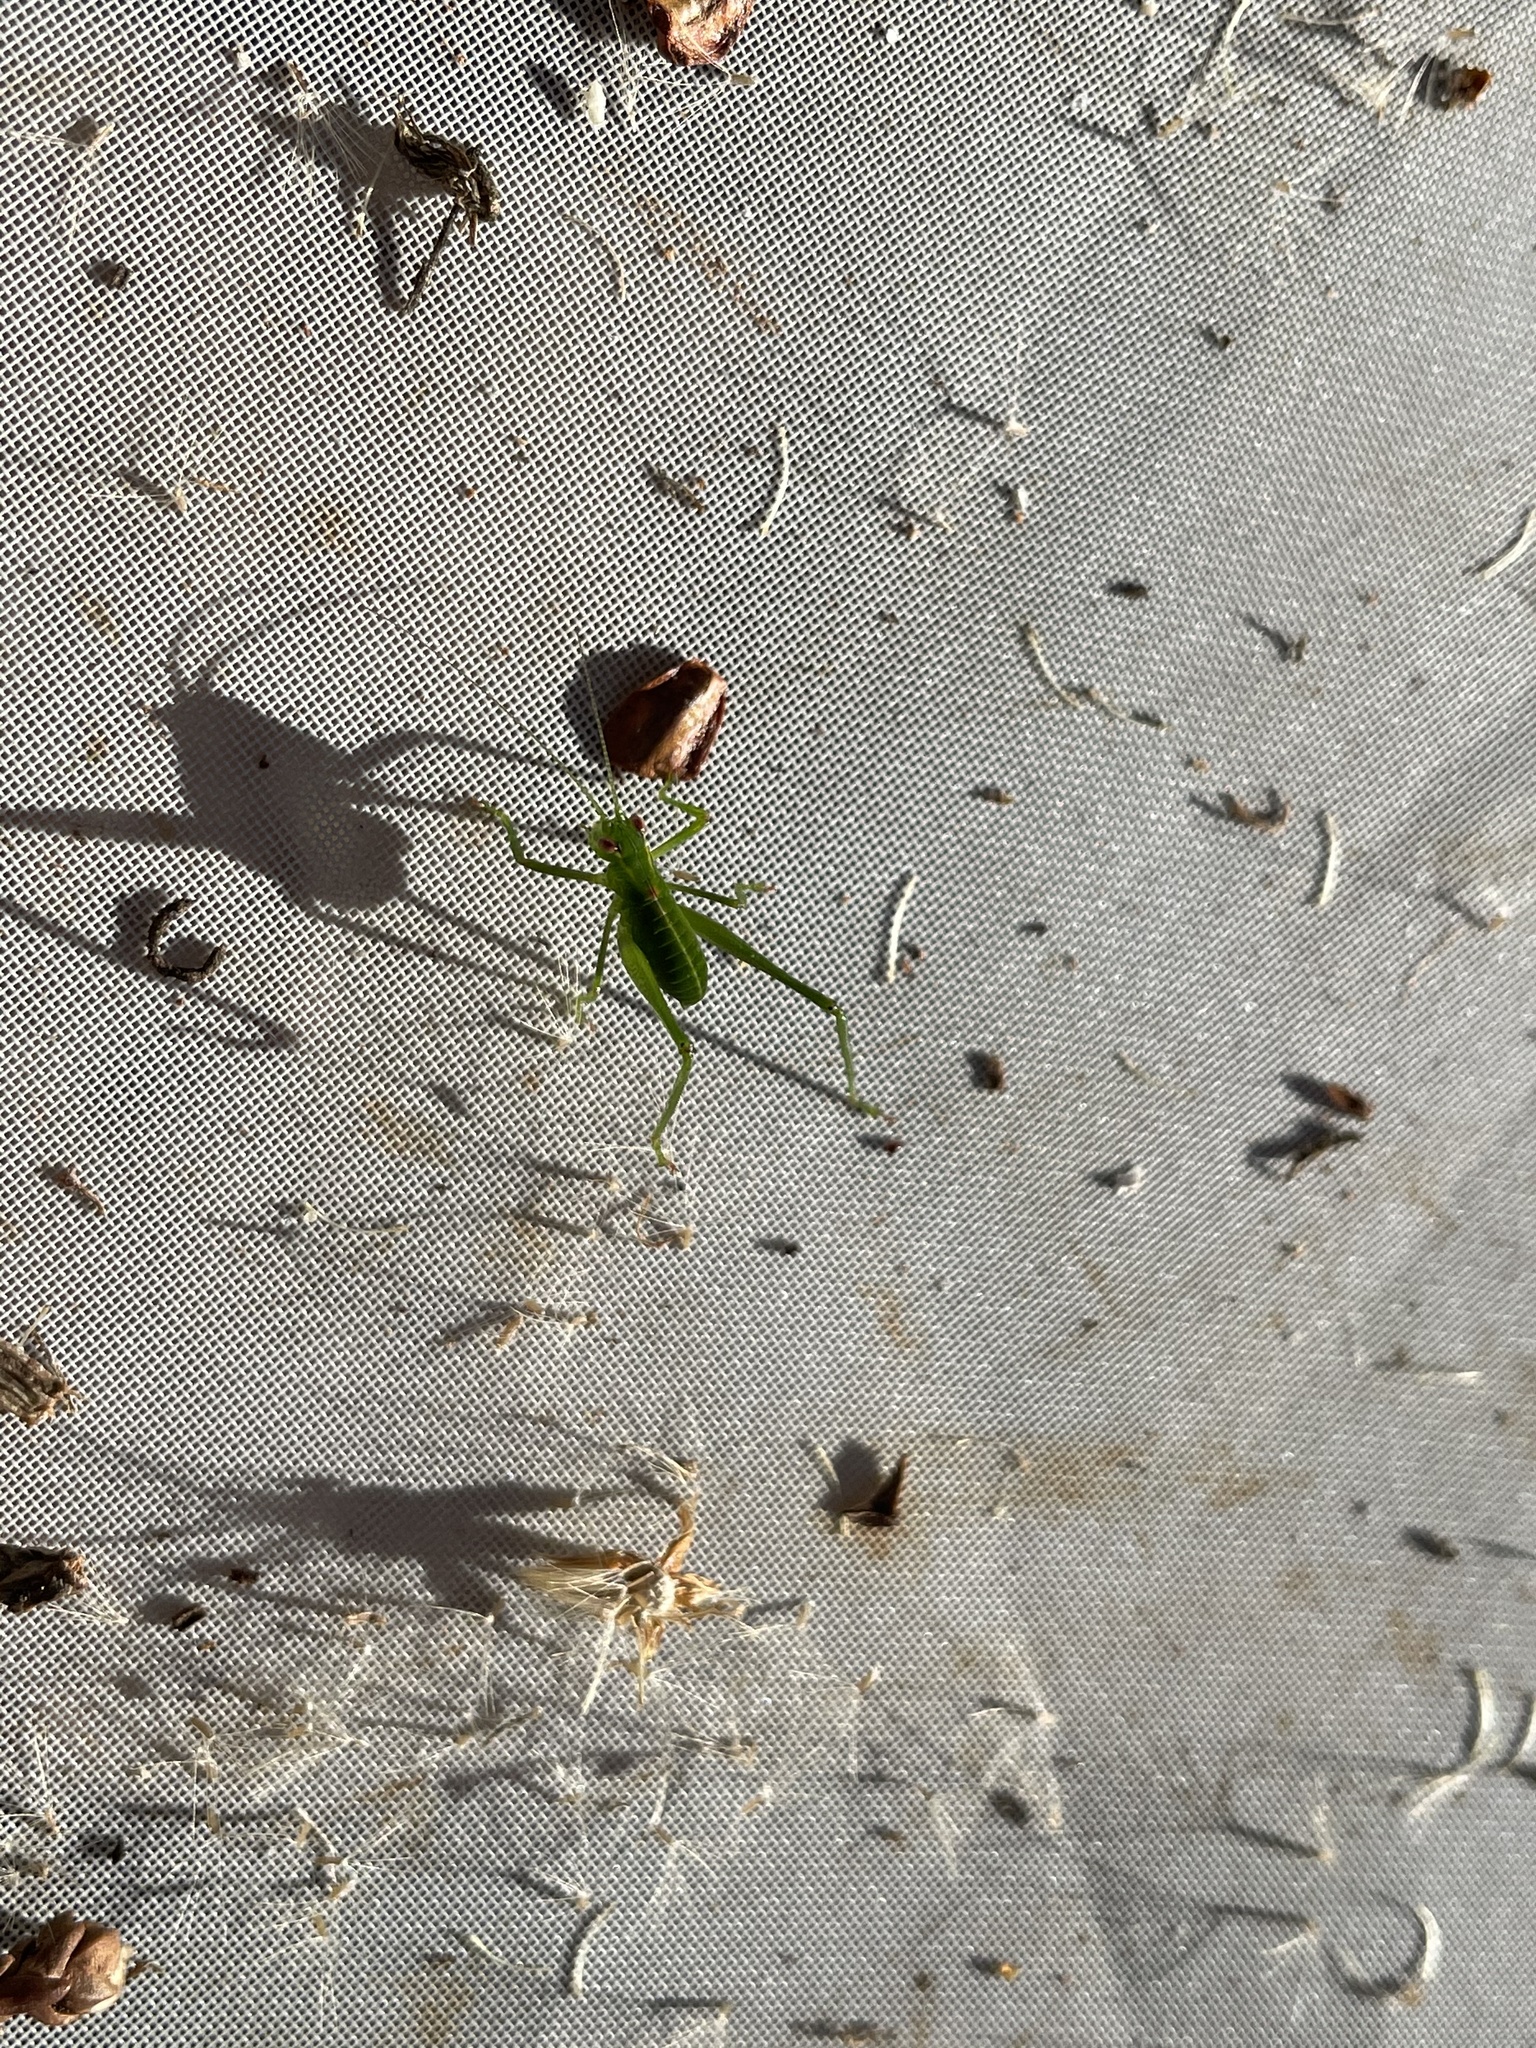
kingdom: Animalia
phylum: Arthropoda
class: Insecta
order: Orthoptera
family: Tettigoniidae
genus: Caedicia
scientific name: Caedicia simplex
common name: Common garden katydid
